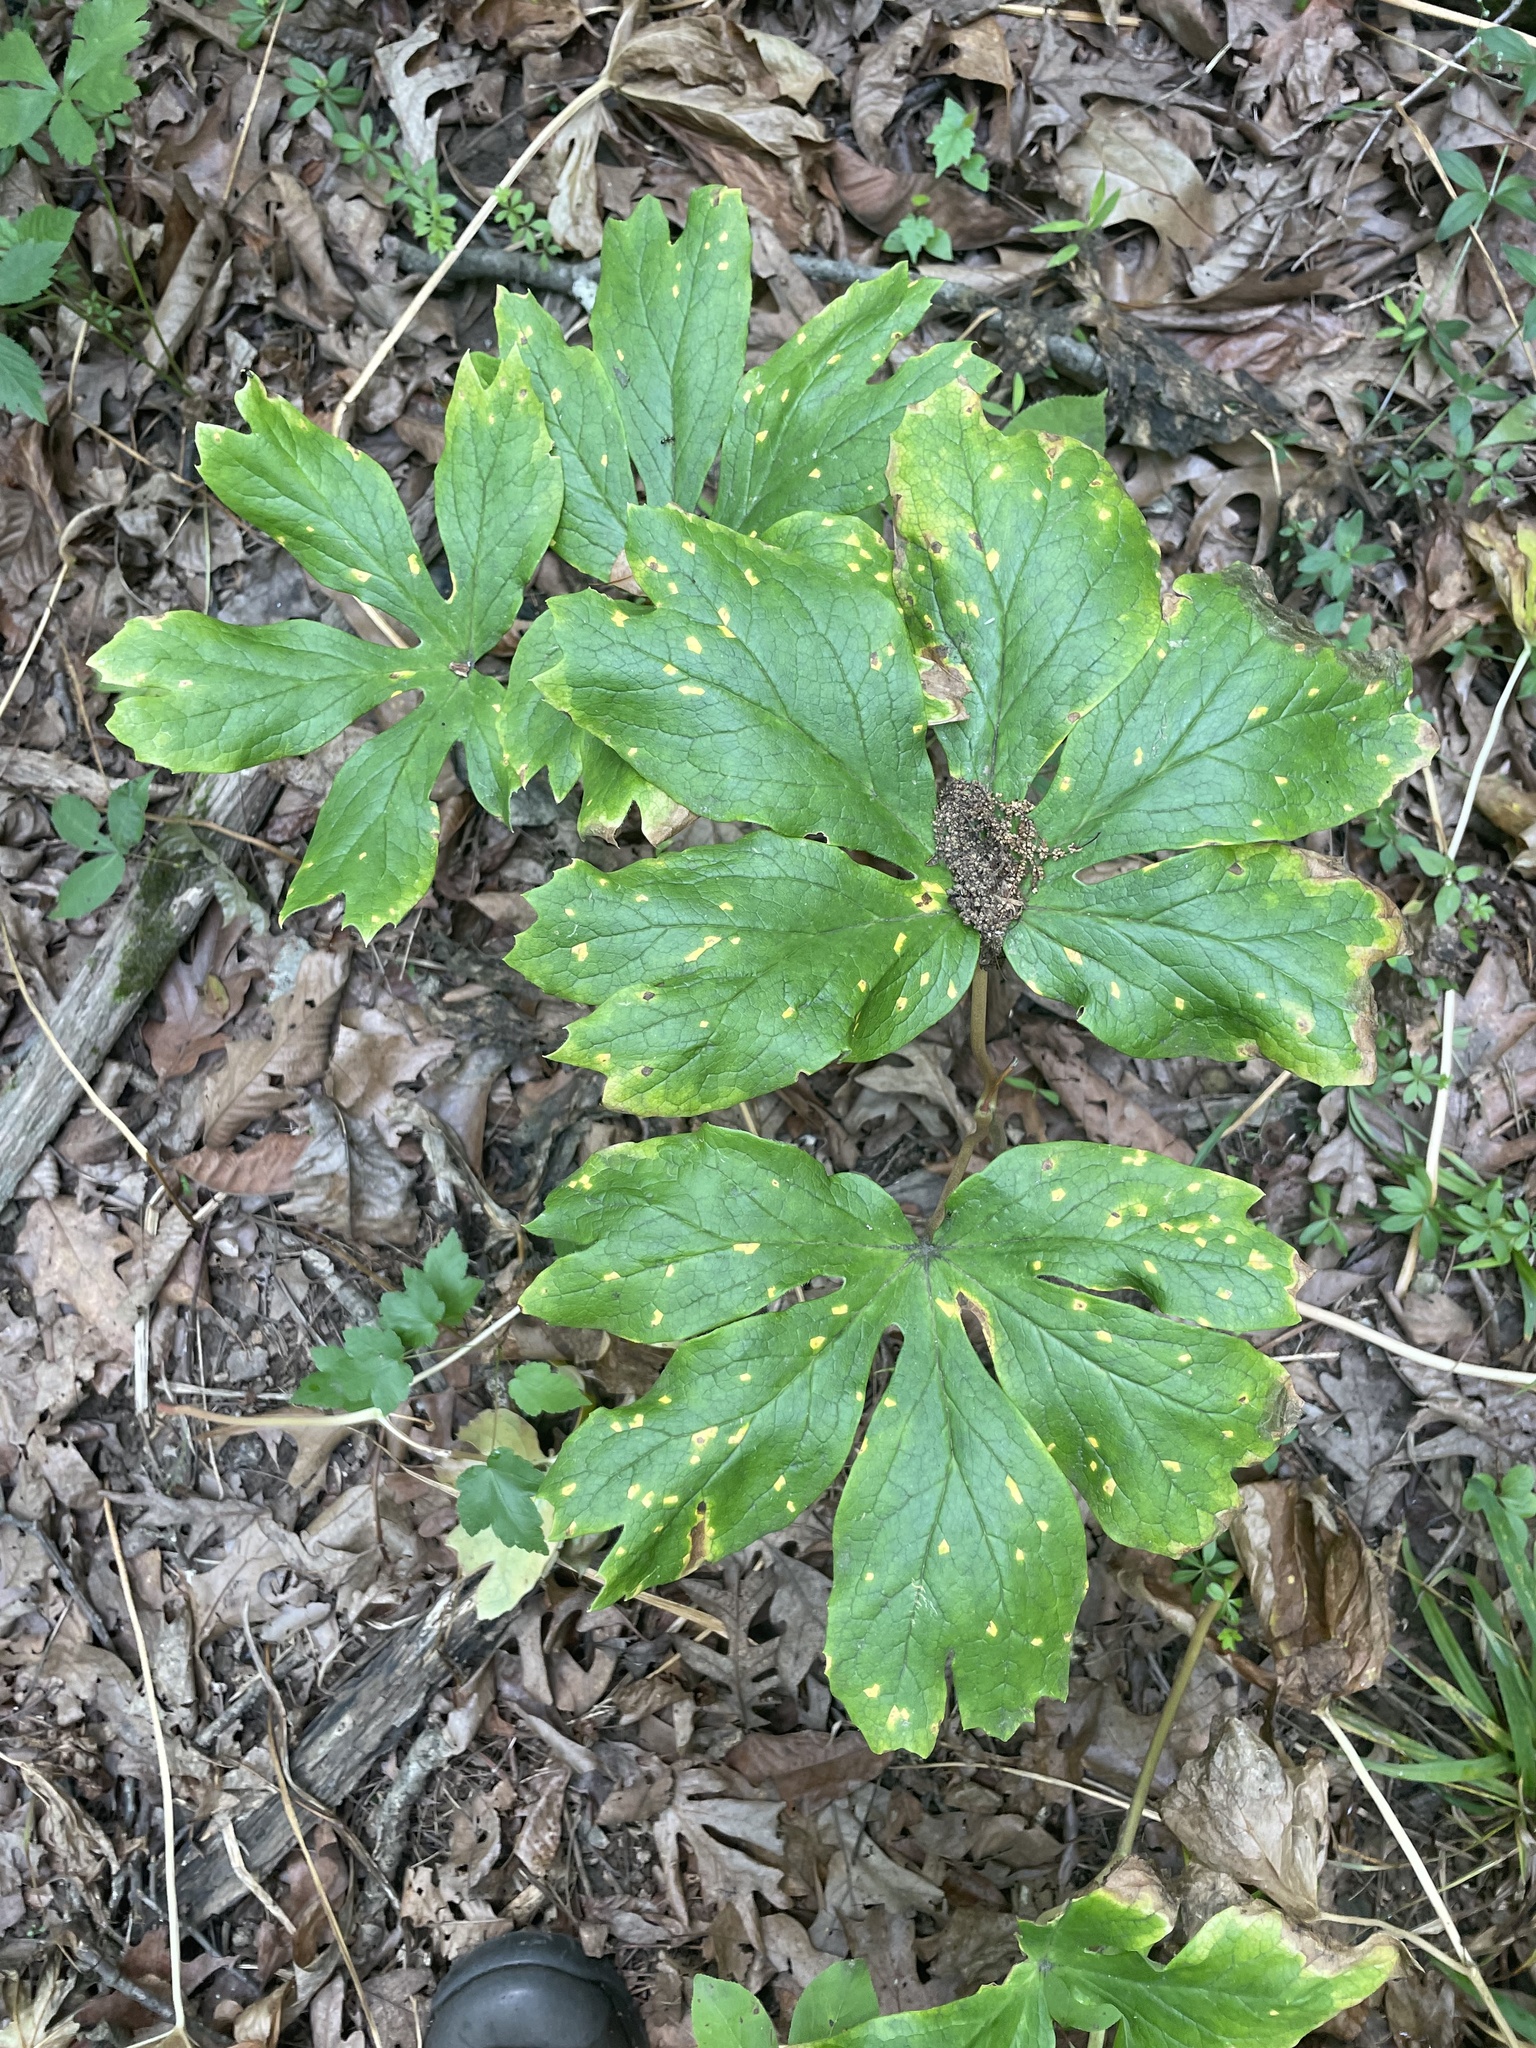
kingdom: Plantae
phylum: Tracheophyta
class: Magnoliopsida
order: Ranunculales
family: Berberidaceae
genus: Podophyllum
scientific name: Podophyllum peltatum
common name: Wild mandrake
